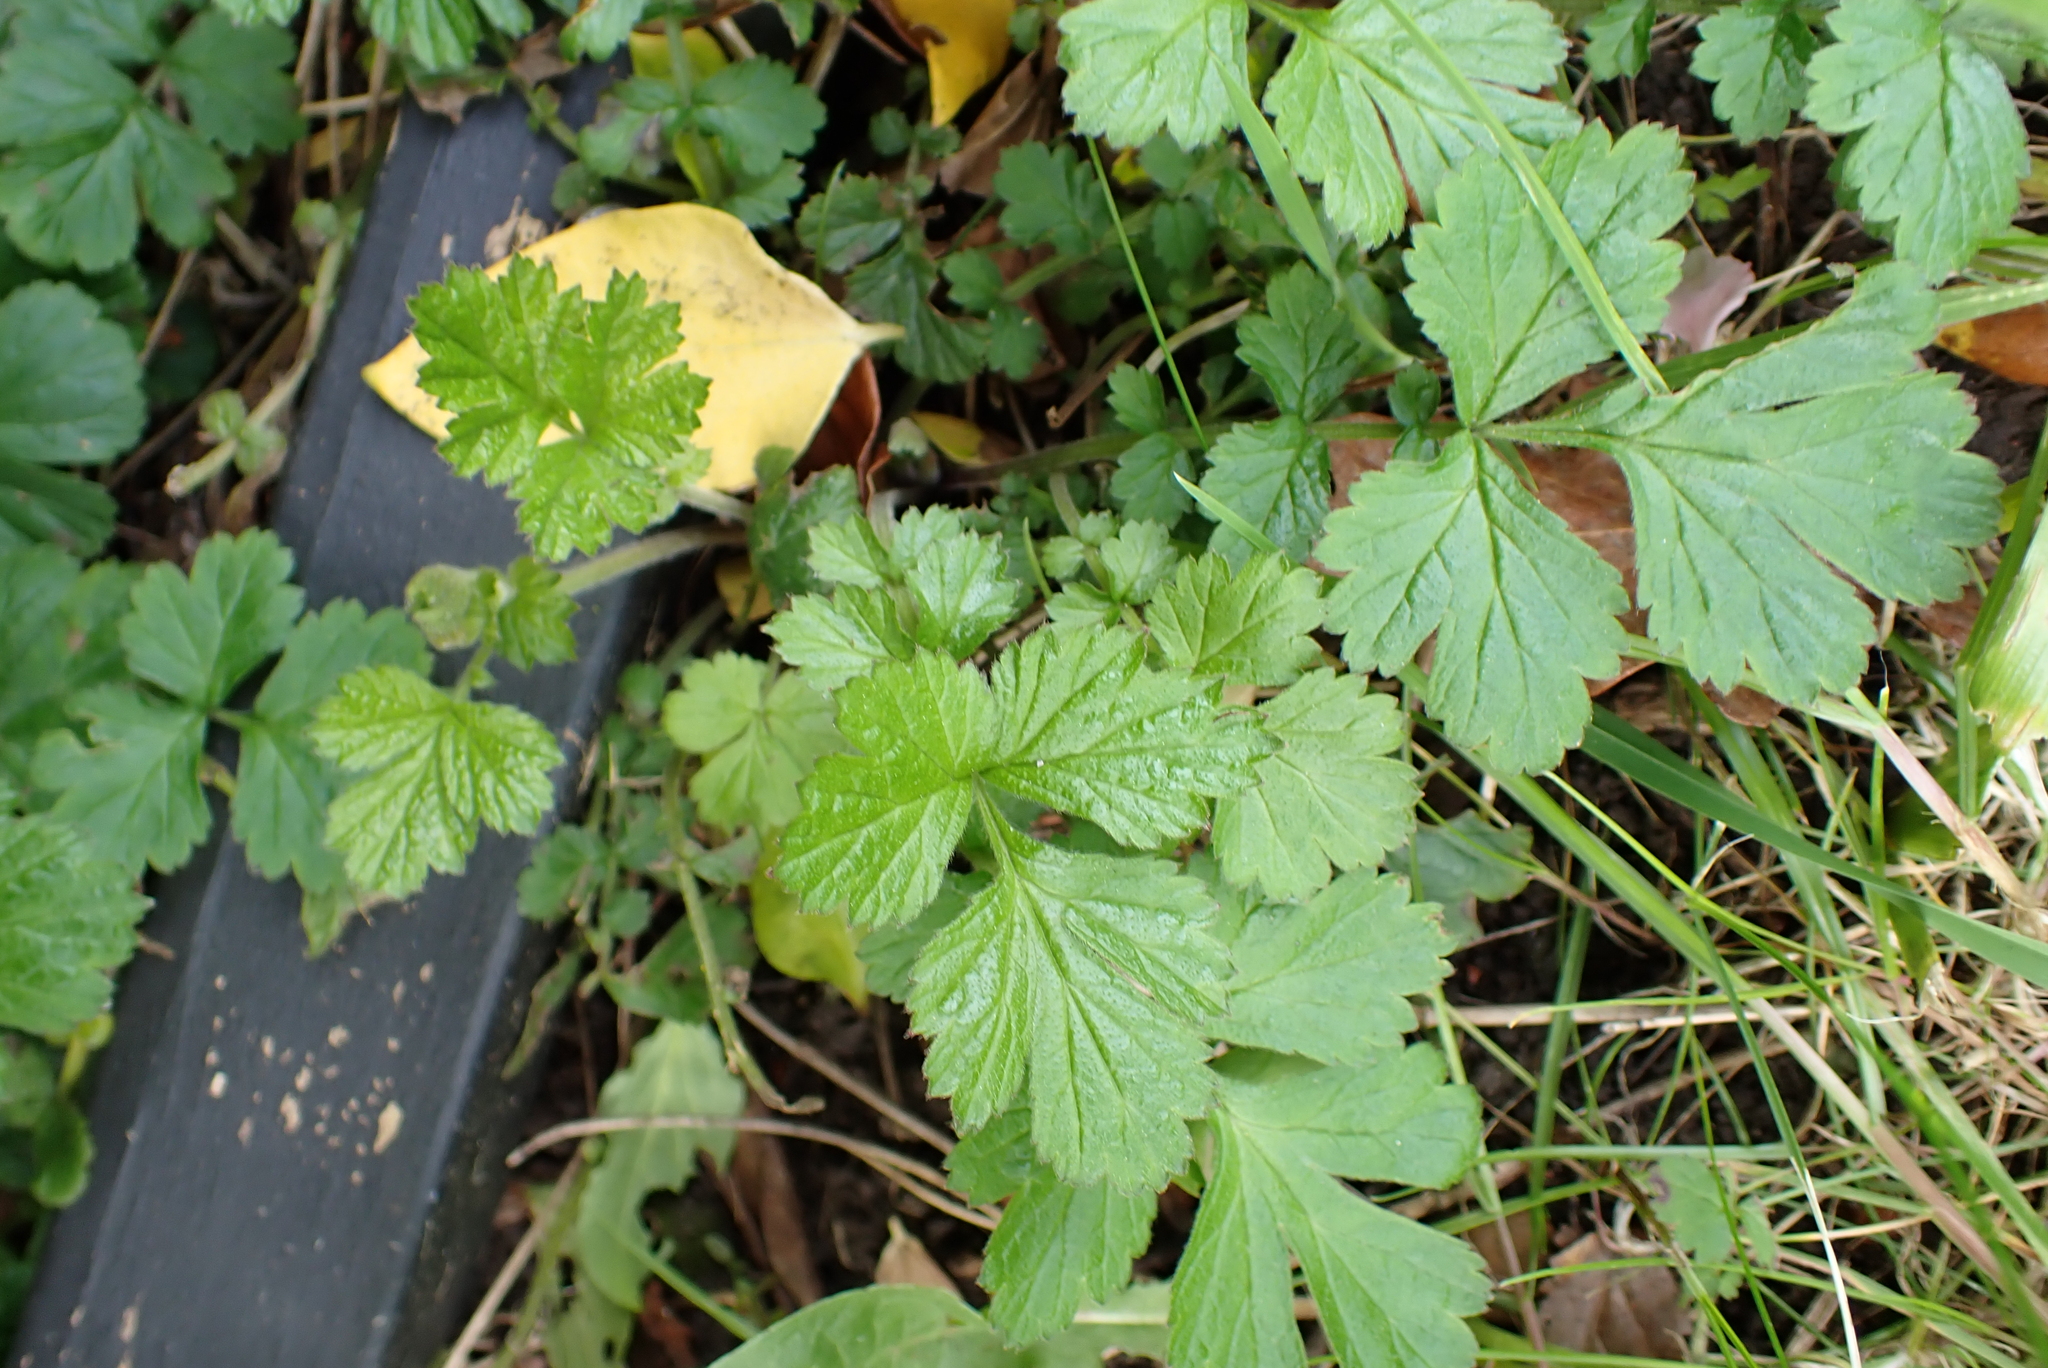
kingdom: Plantae
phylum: Tracheophyta
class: Magnoliopsida
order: Rosales
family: Rosaceae
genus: Geum
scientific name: Geum urbanum
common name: Wood avens
